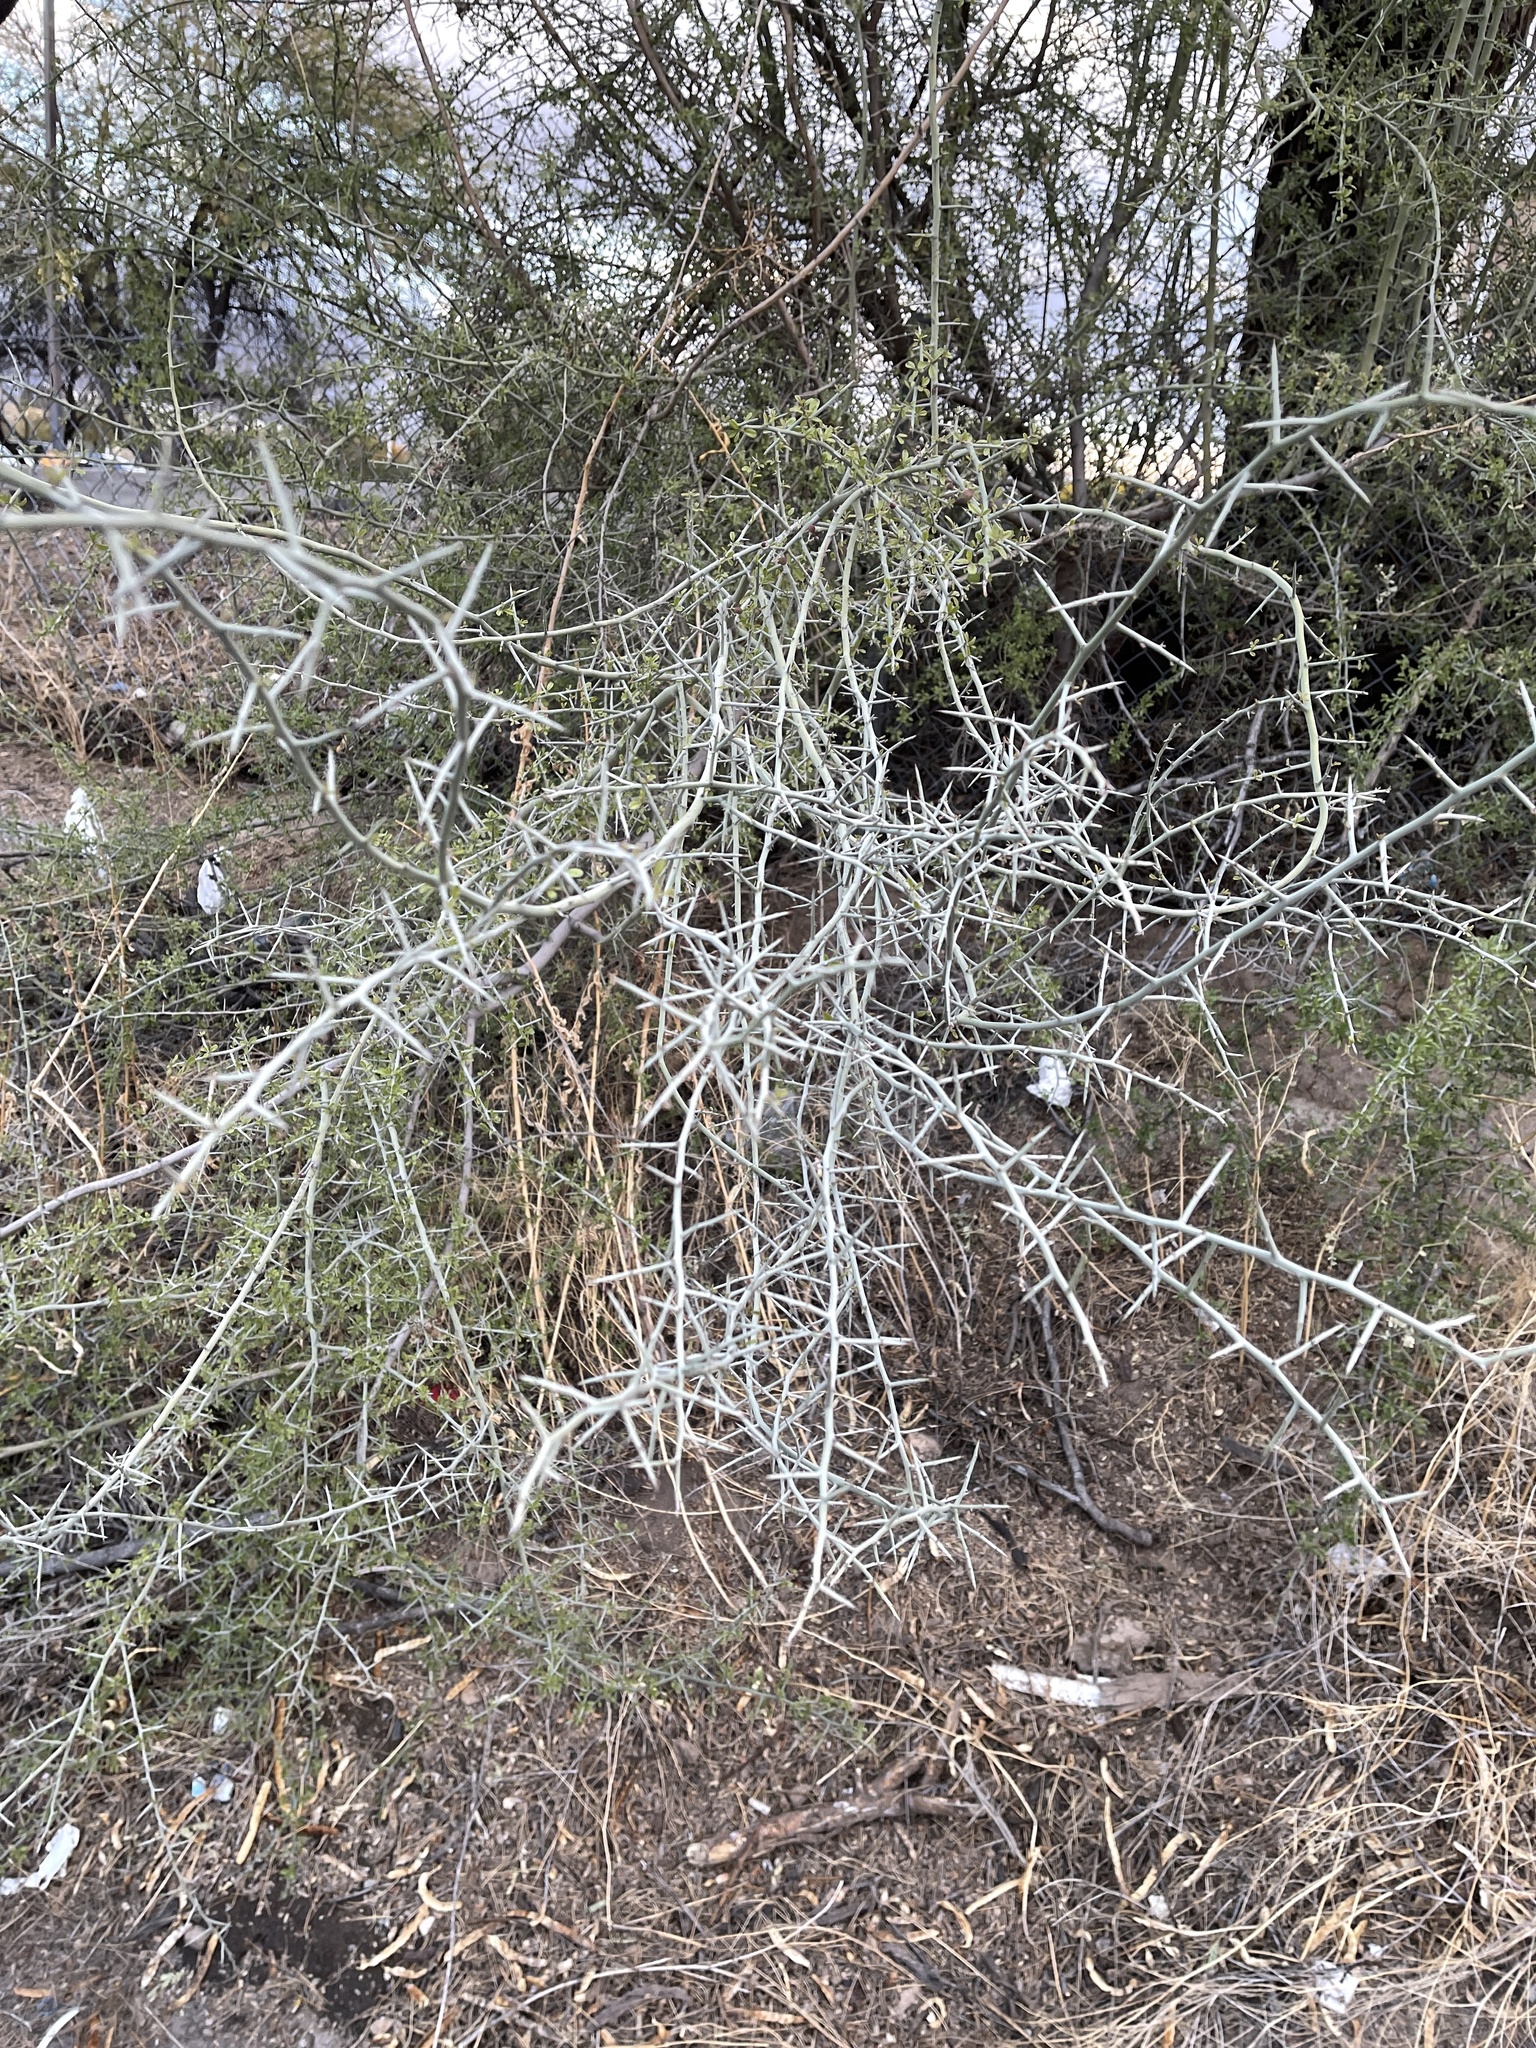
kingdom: Plantae
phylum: Tracheophyta
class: Magnoliopsida
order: Fabales
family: Fabaceae
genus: Parkinsonia
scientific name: Parkinsonia florida
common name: Blue paloverde
